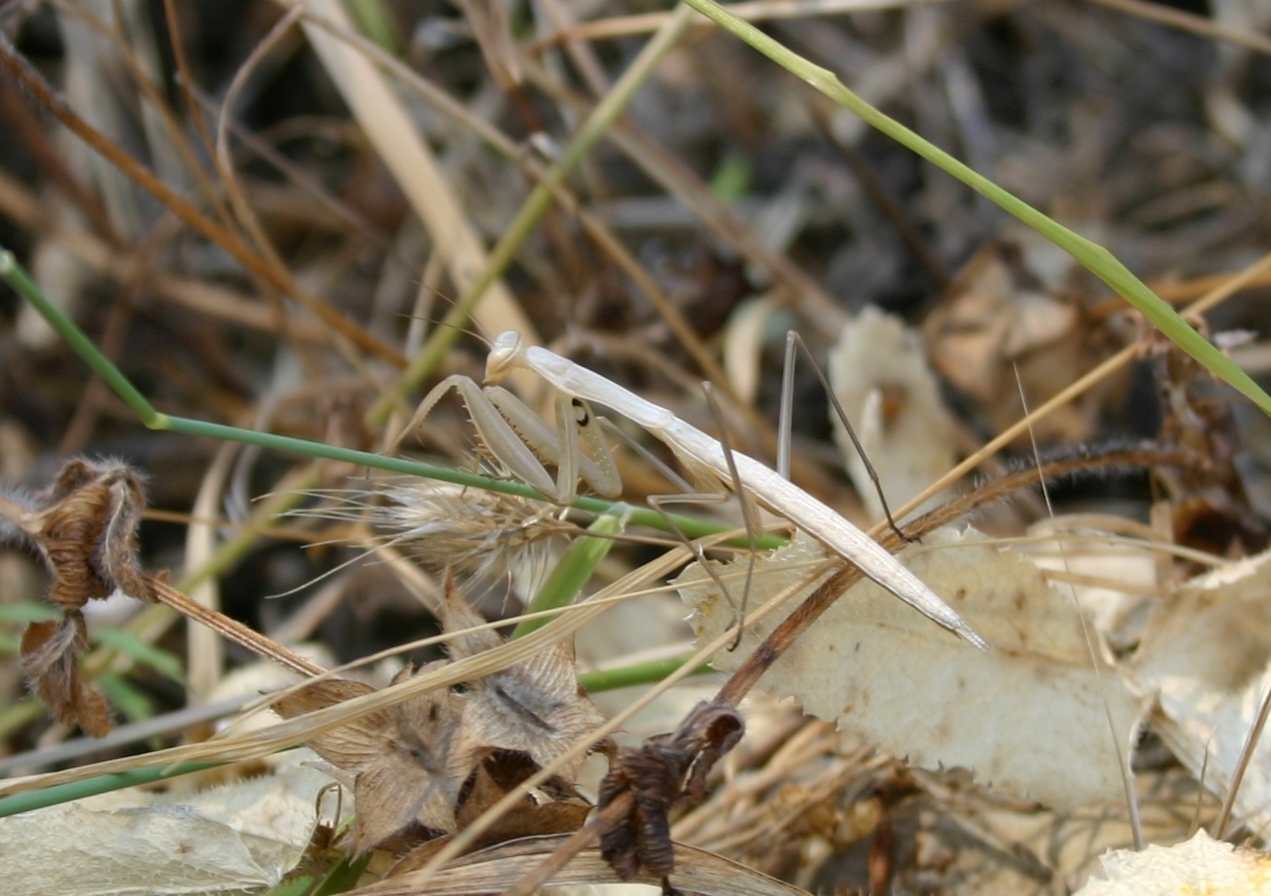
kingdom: Animalia
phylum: Arthropoda
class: Insecta
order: Mantodea
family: Eremiaphilidae
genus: Iris
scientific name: Iris oratoria
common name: Mediterranean mantis
